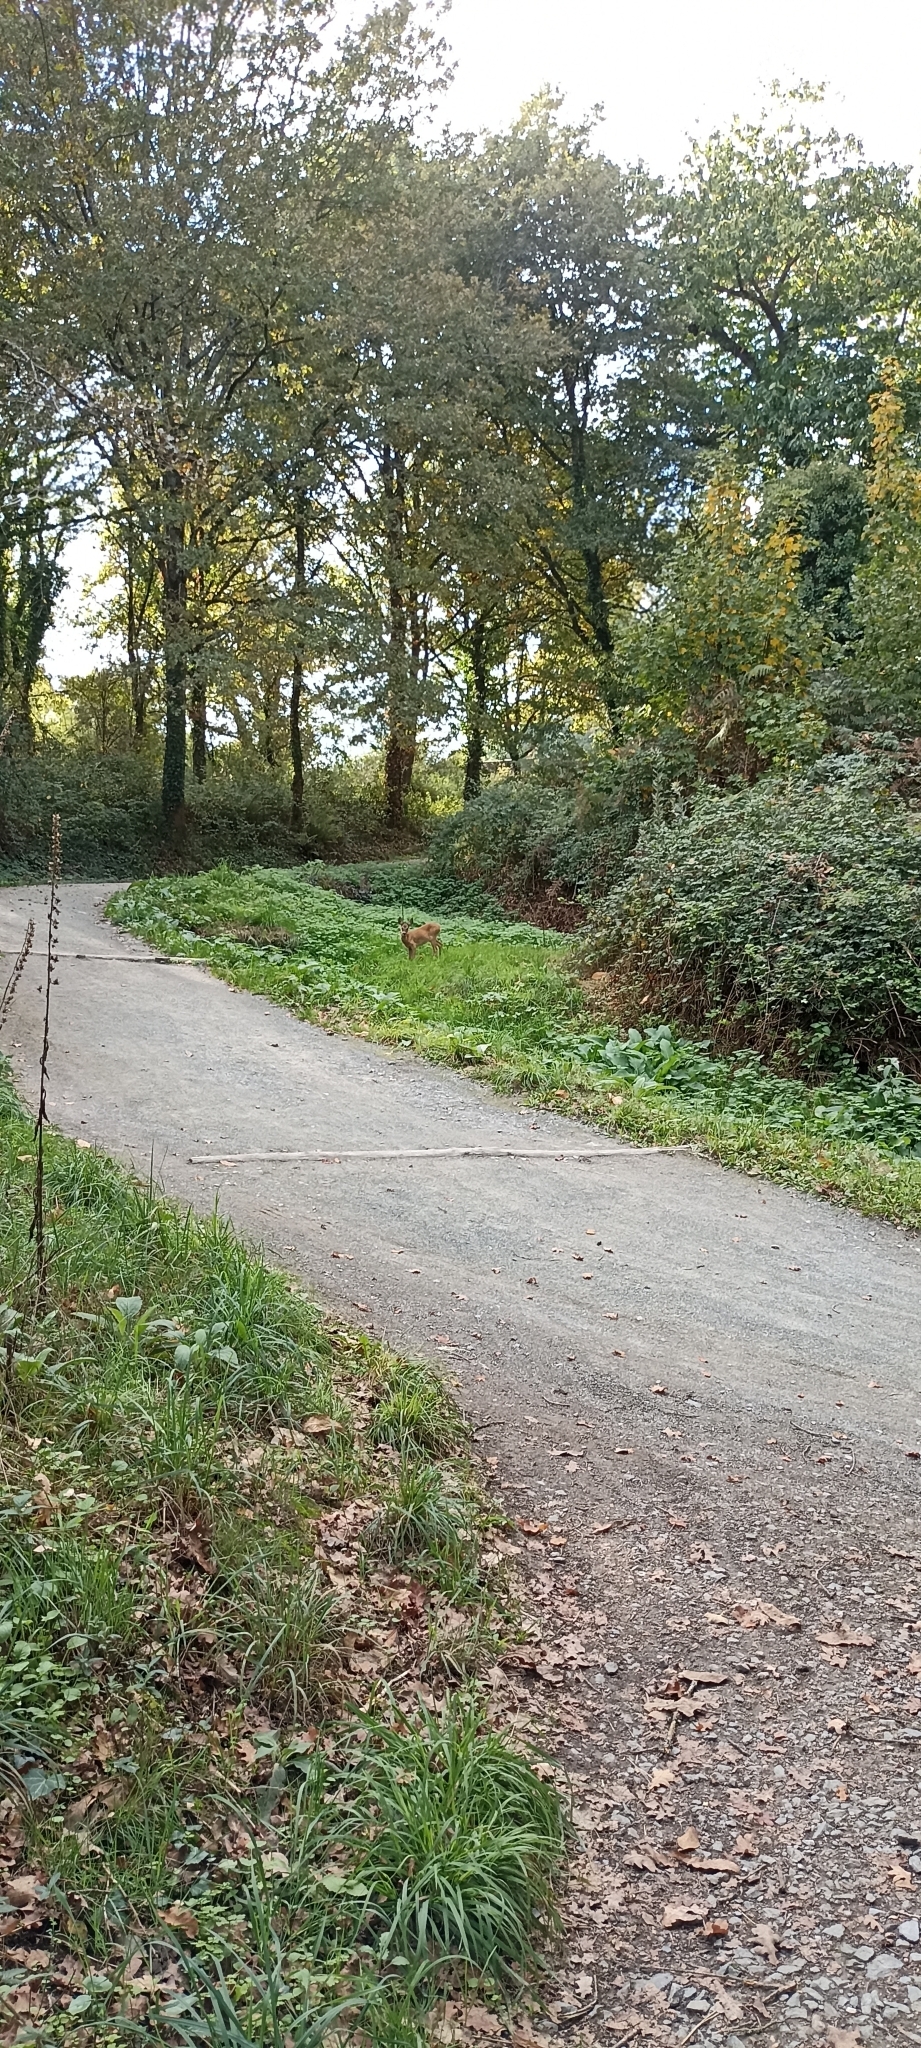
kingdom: Animalia
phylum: Chordata
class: Mammalia
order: Artiodactyla
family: Cervidae
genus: Capreolus
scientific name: Capreolus capreolus
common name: Western roe deer
